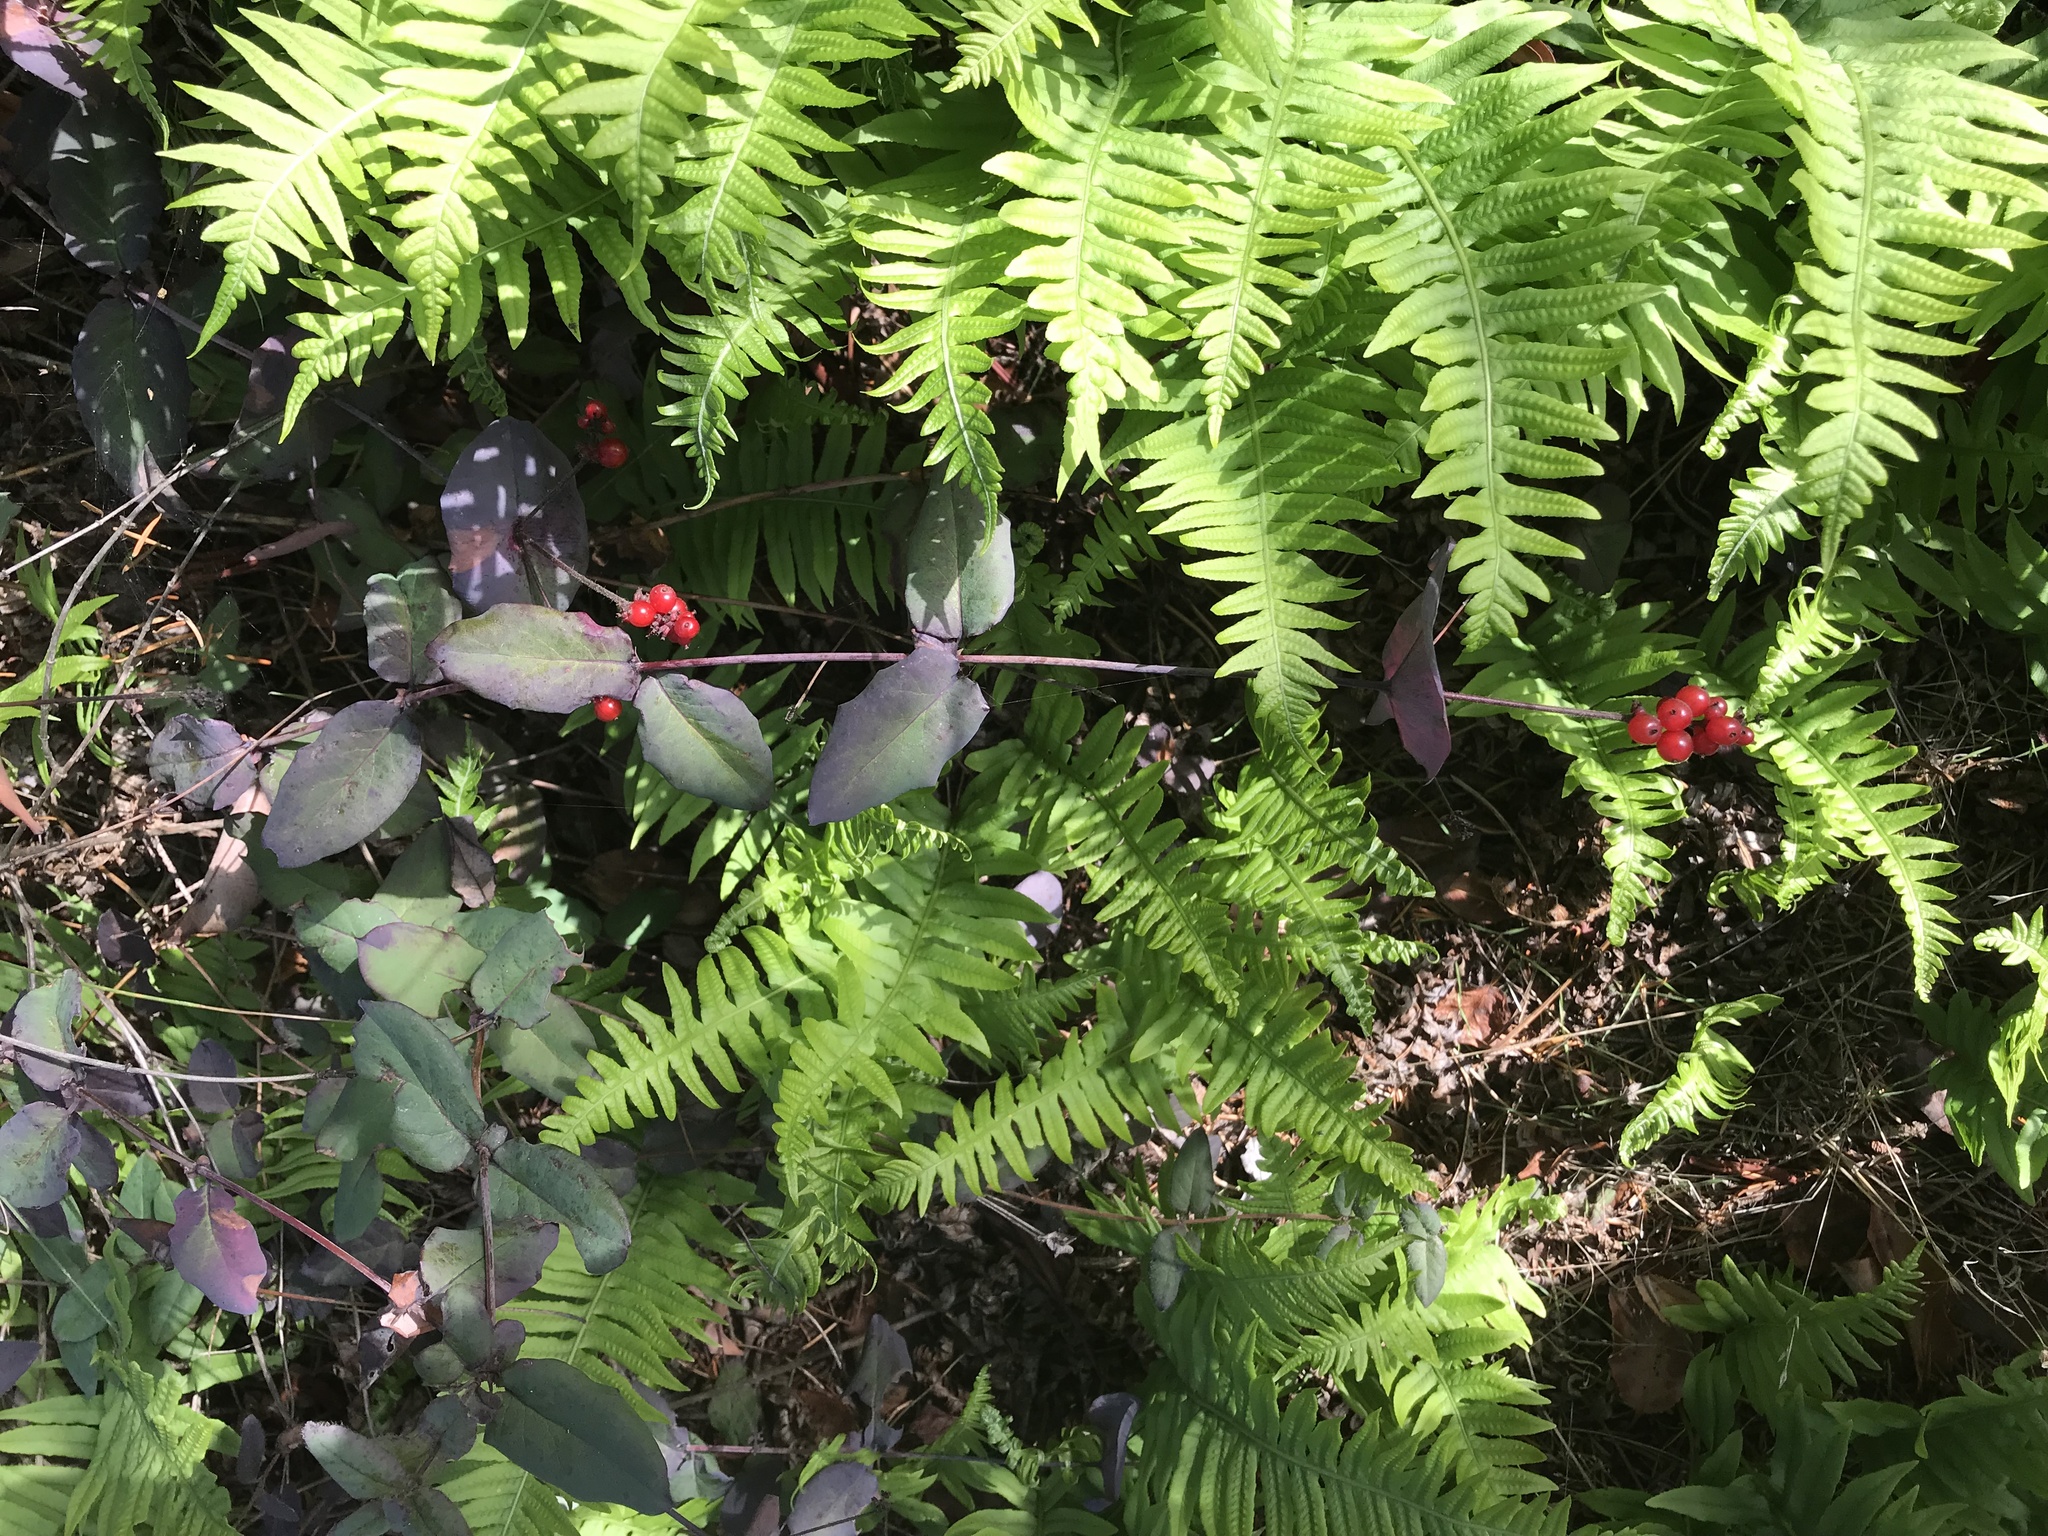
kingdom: Plantae
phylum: Tracheophyta
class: Magnoliopsida
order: Dipsacales
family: Caprifoliaceae
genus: Lonicera
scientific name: Lonicera hispidula
